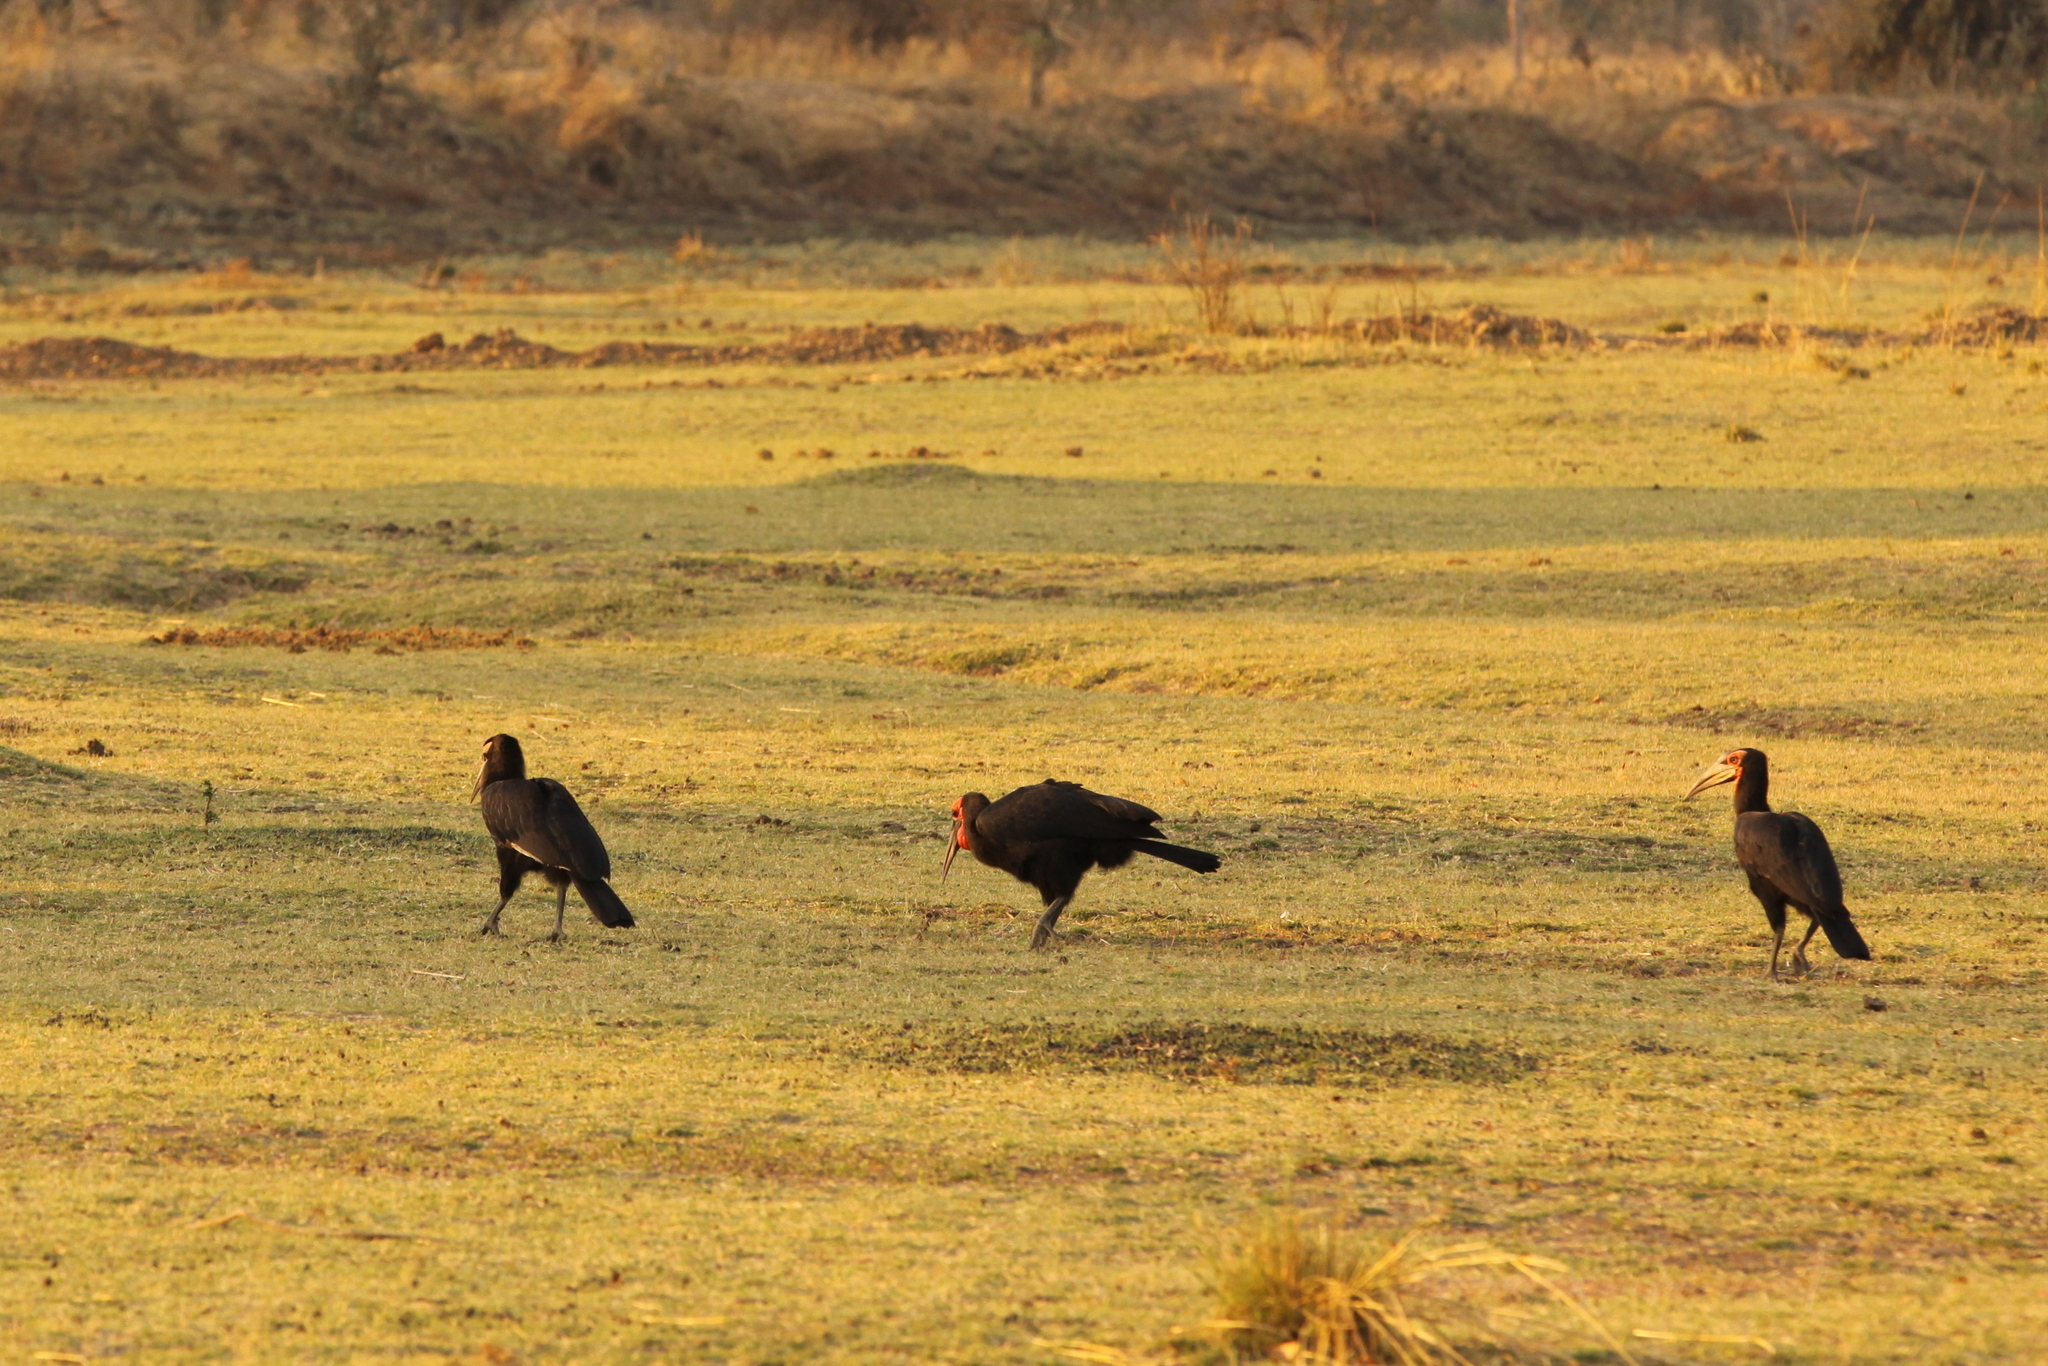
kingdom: Animalia
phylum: Chordata
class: Aves
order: Bucerotiformes
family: Bucorvidae
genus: Bucorvus
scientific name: Bucorvus leadbeateri
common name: Southern ground-hornbill
